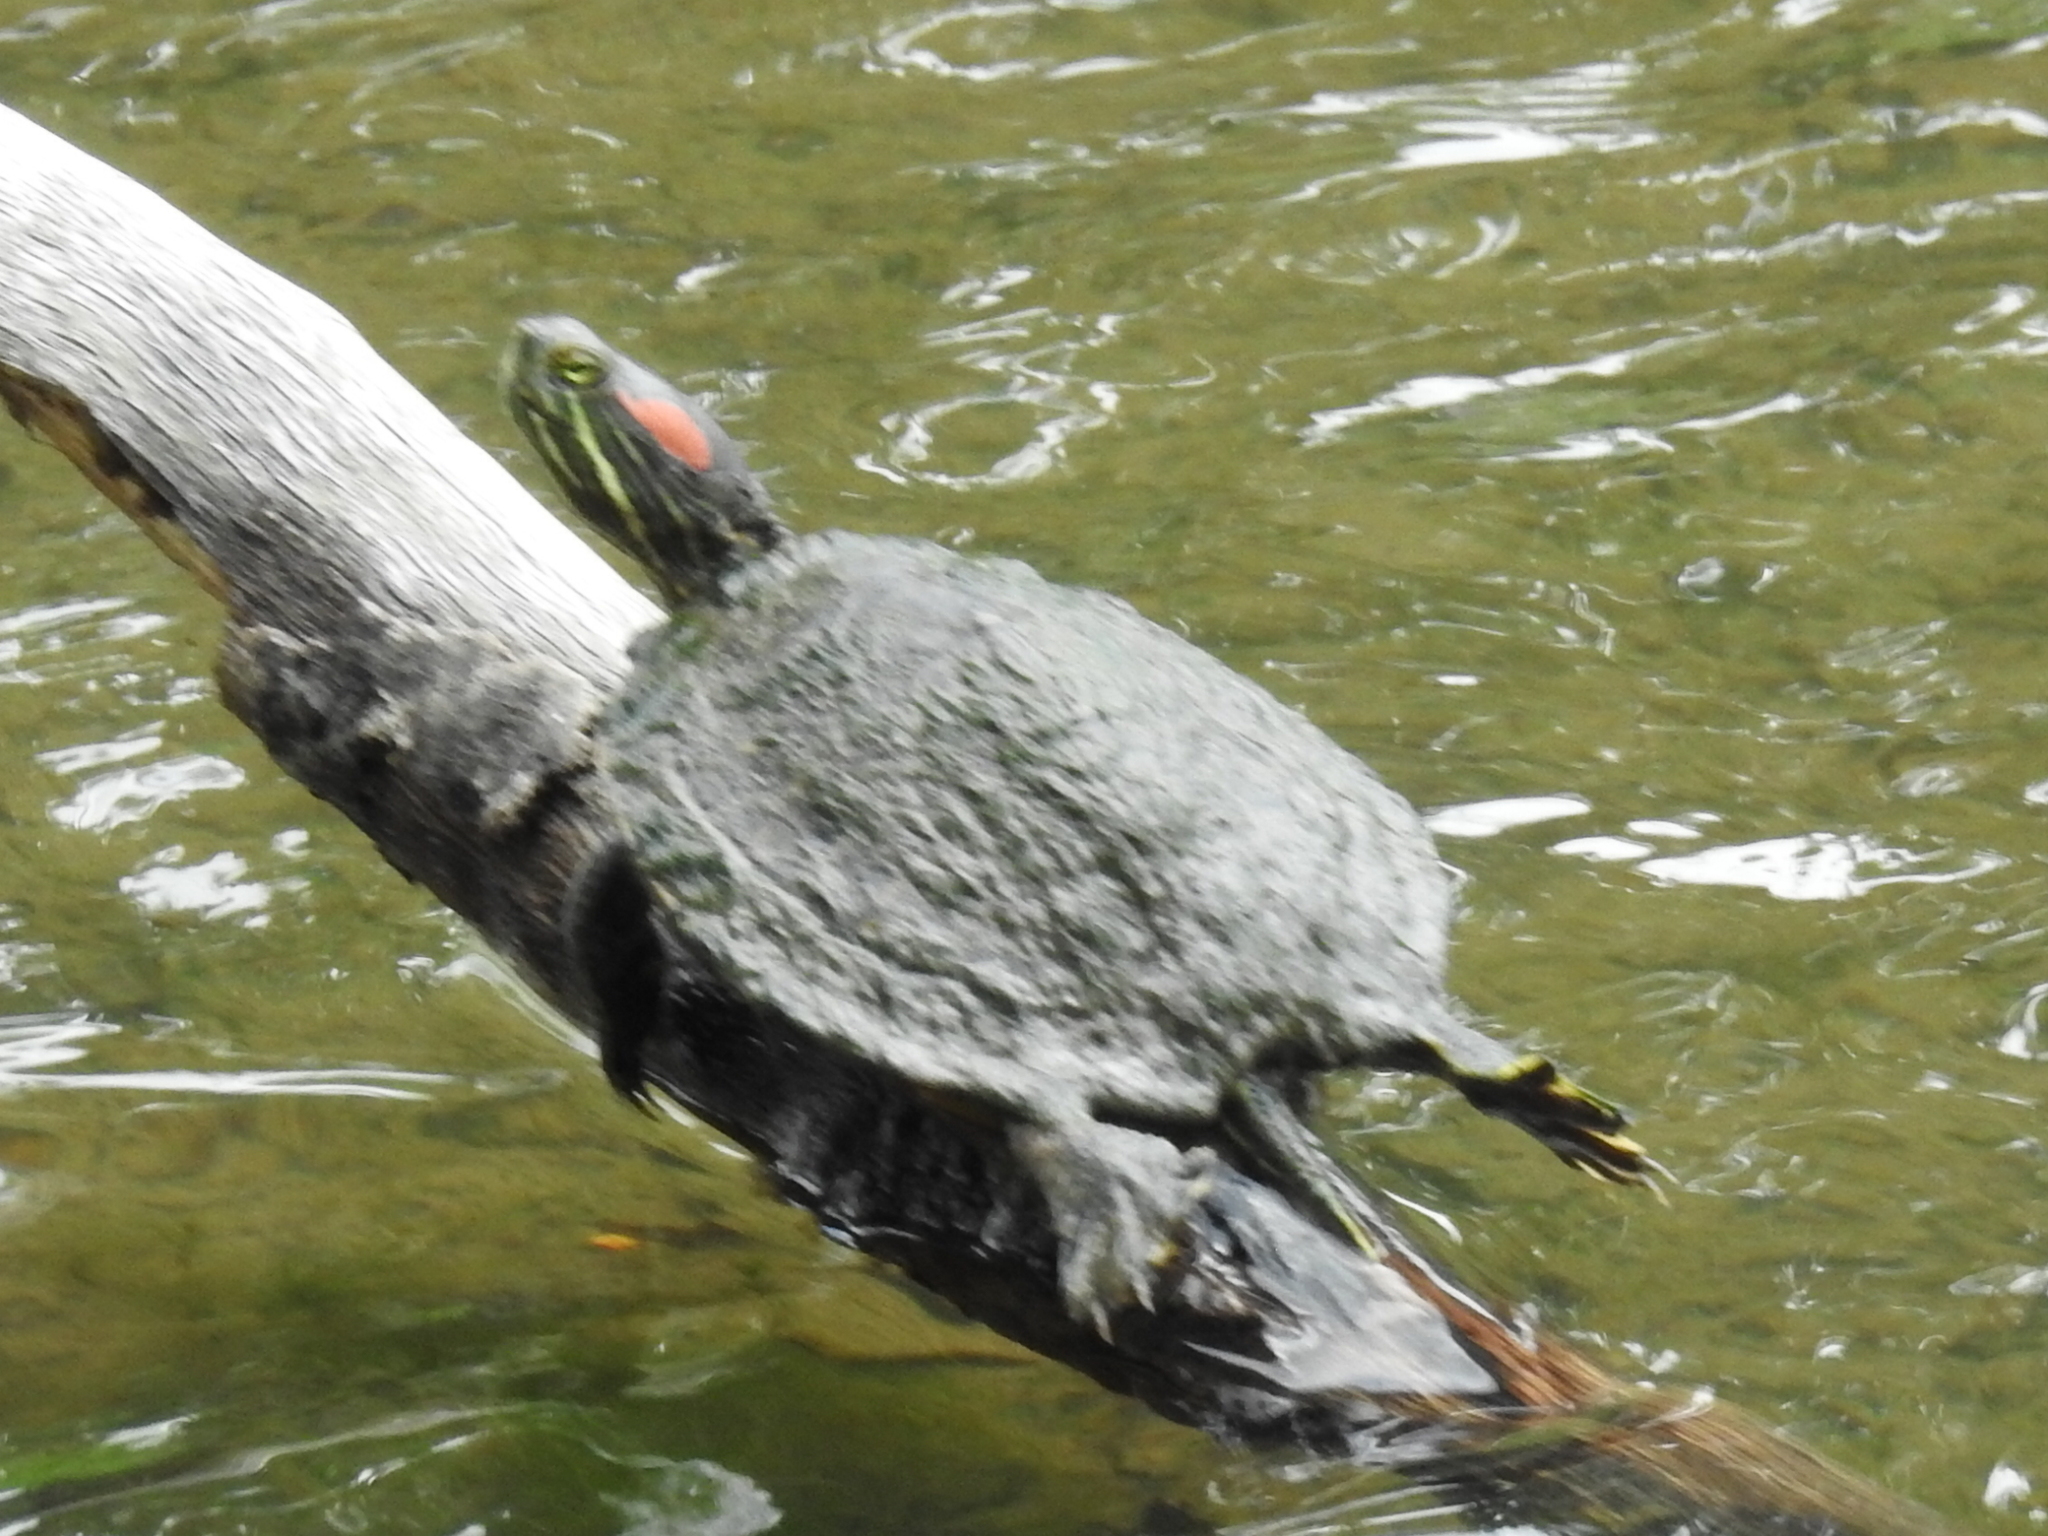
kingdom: Animalia
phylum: Chordata
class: Testudines
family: Emydidae
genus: Trachemys
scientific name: Trachemys scripta
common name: Slider
